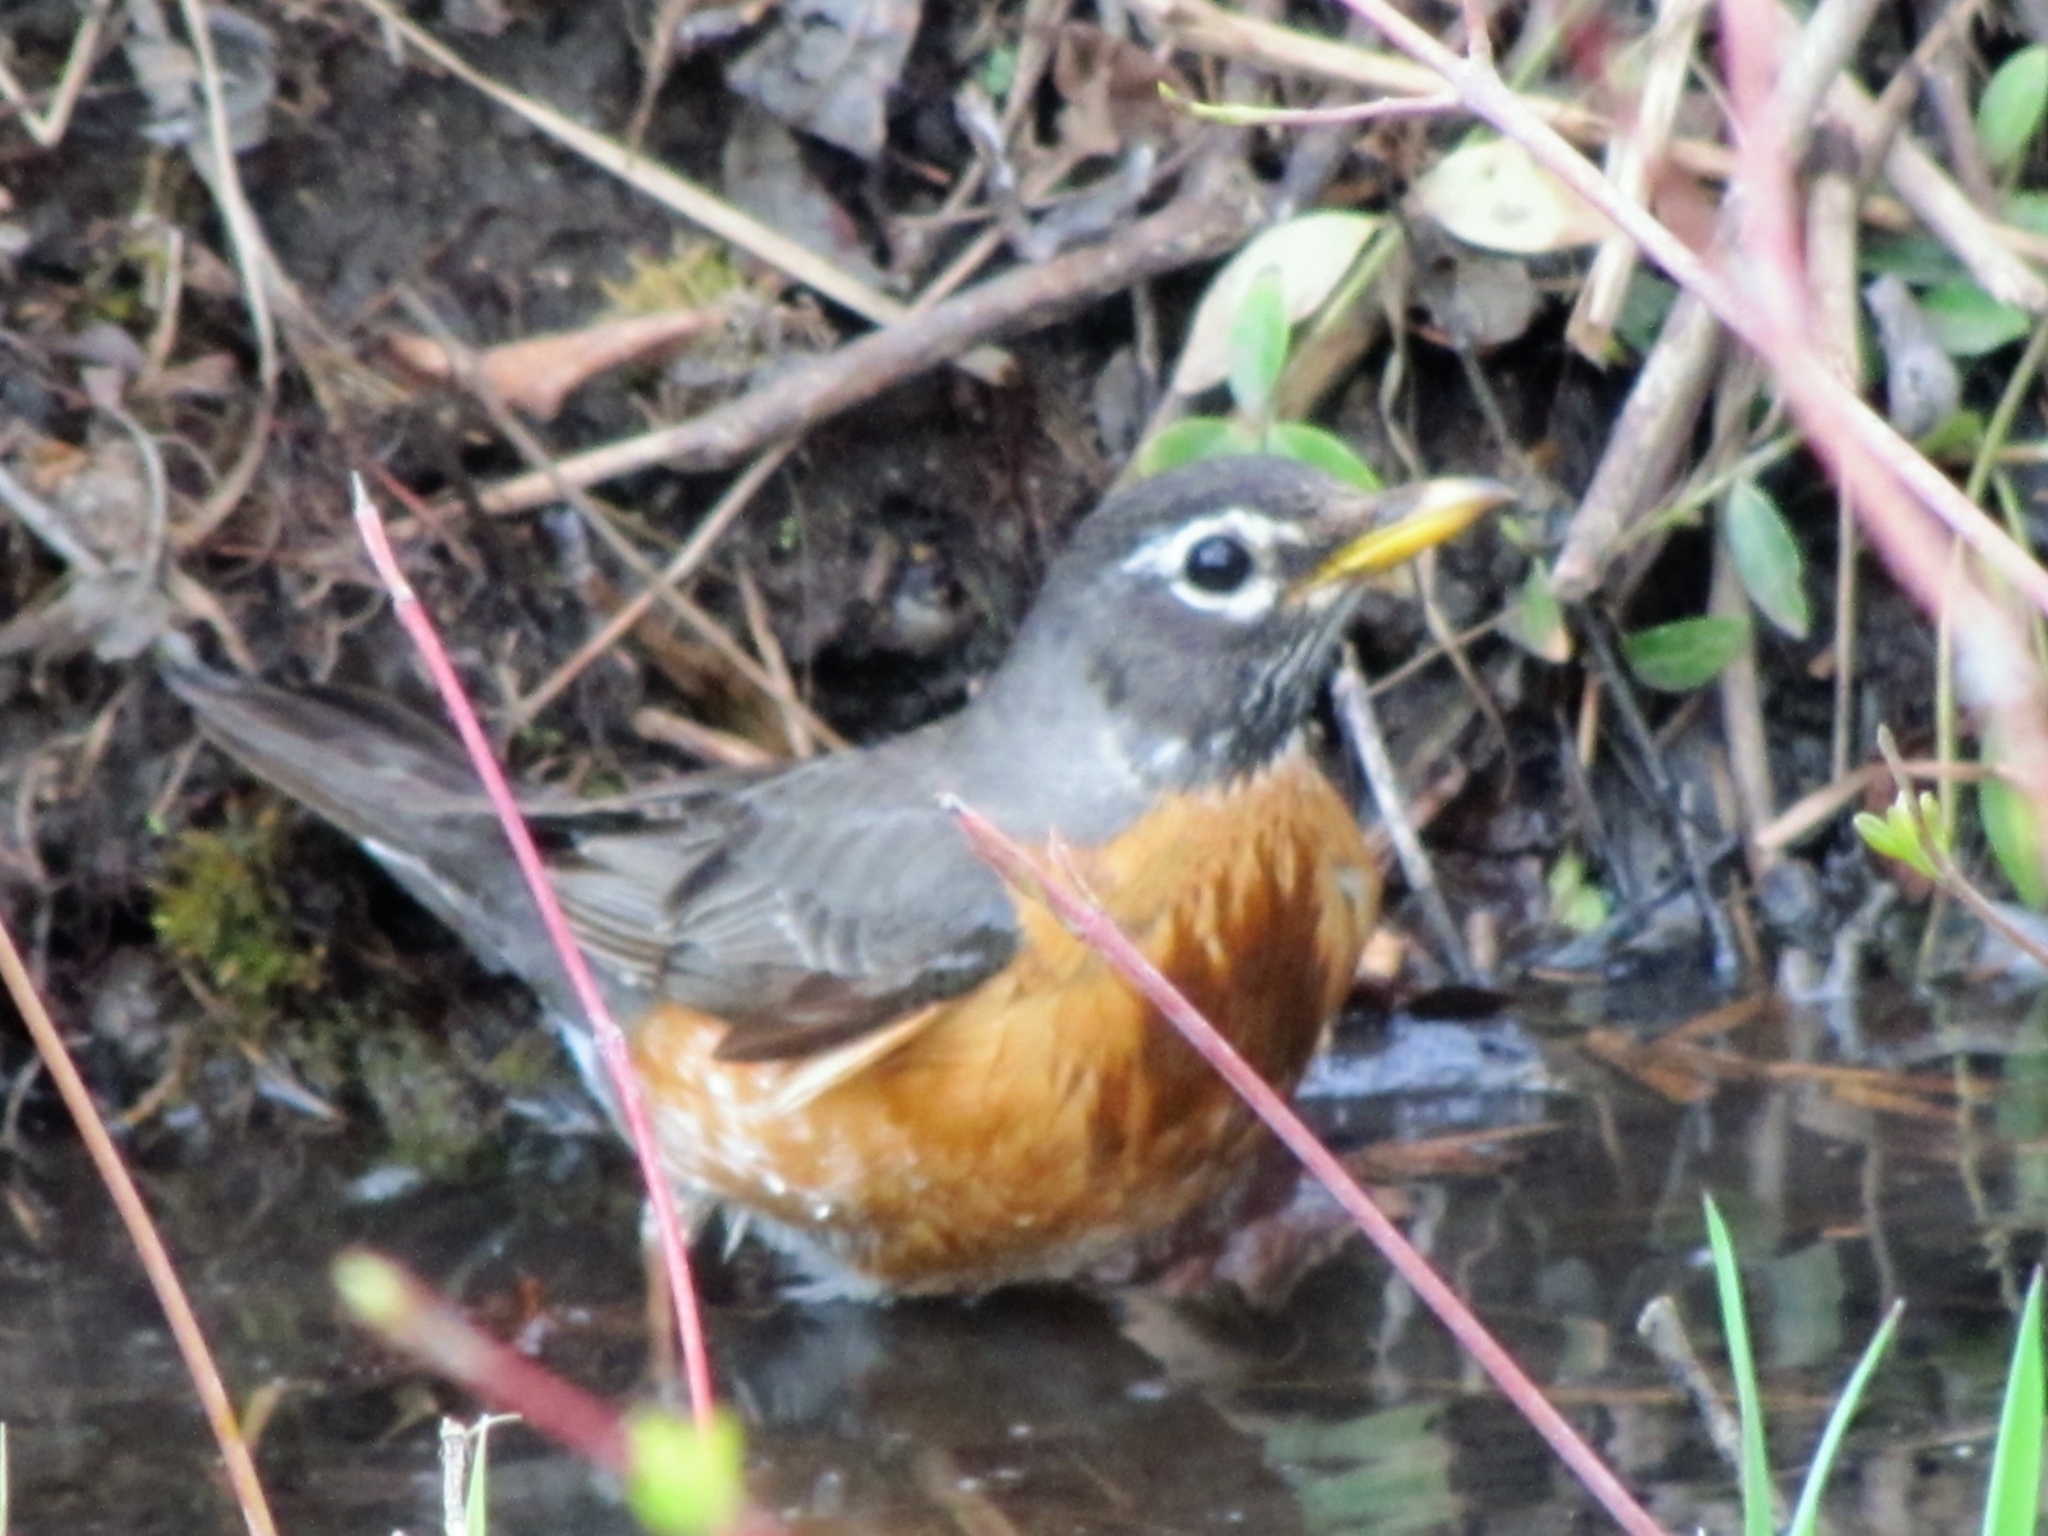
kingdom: Animalia
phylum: Chordata
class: Aves
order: Passeriformes
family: Turdidae
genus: Turdus
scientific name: Turdus migratorius
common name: American robin
